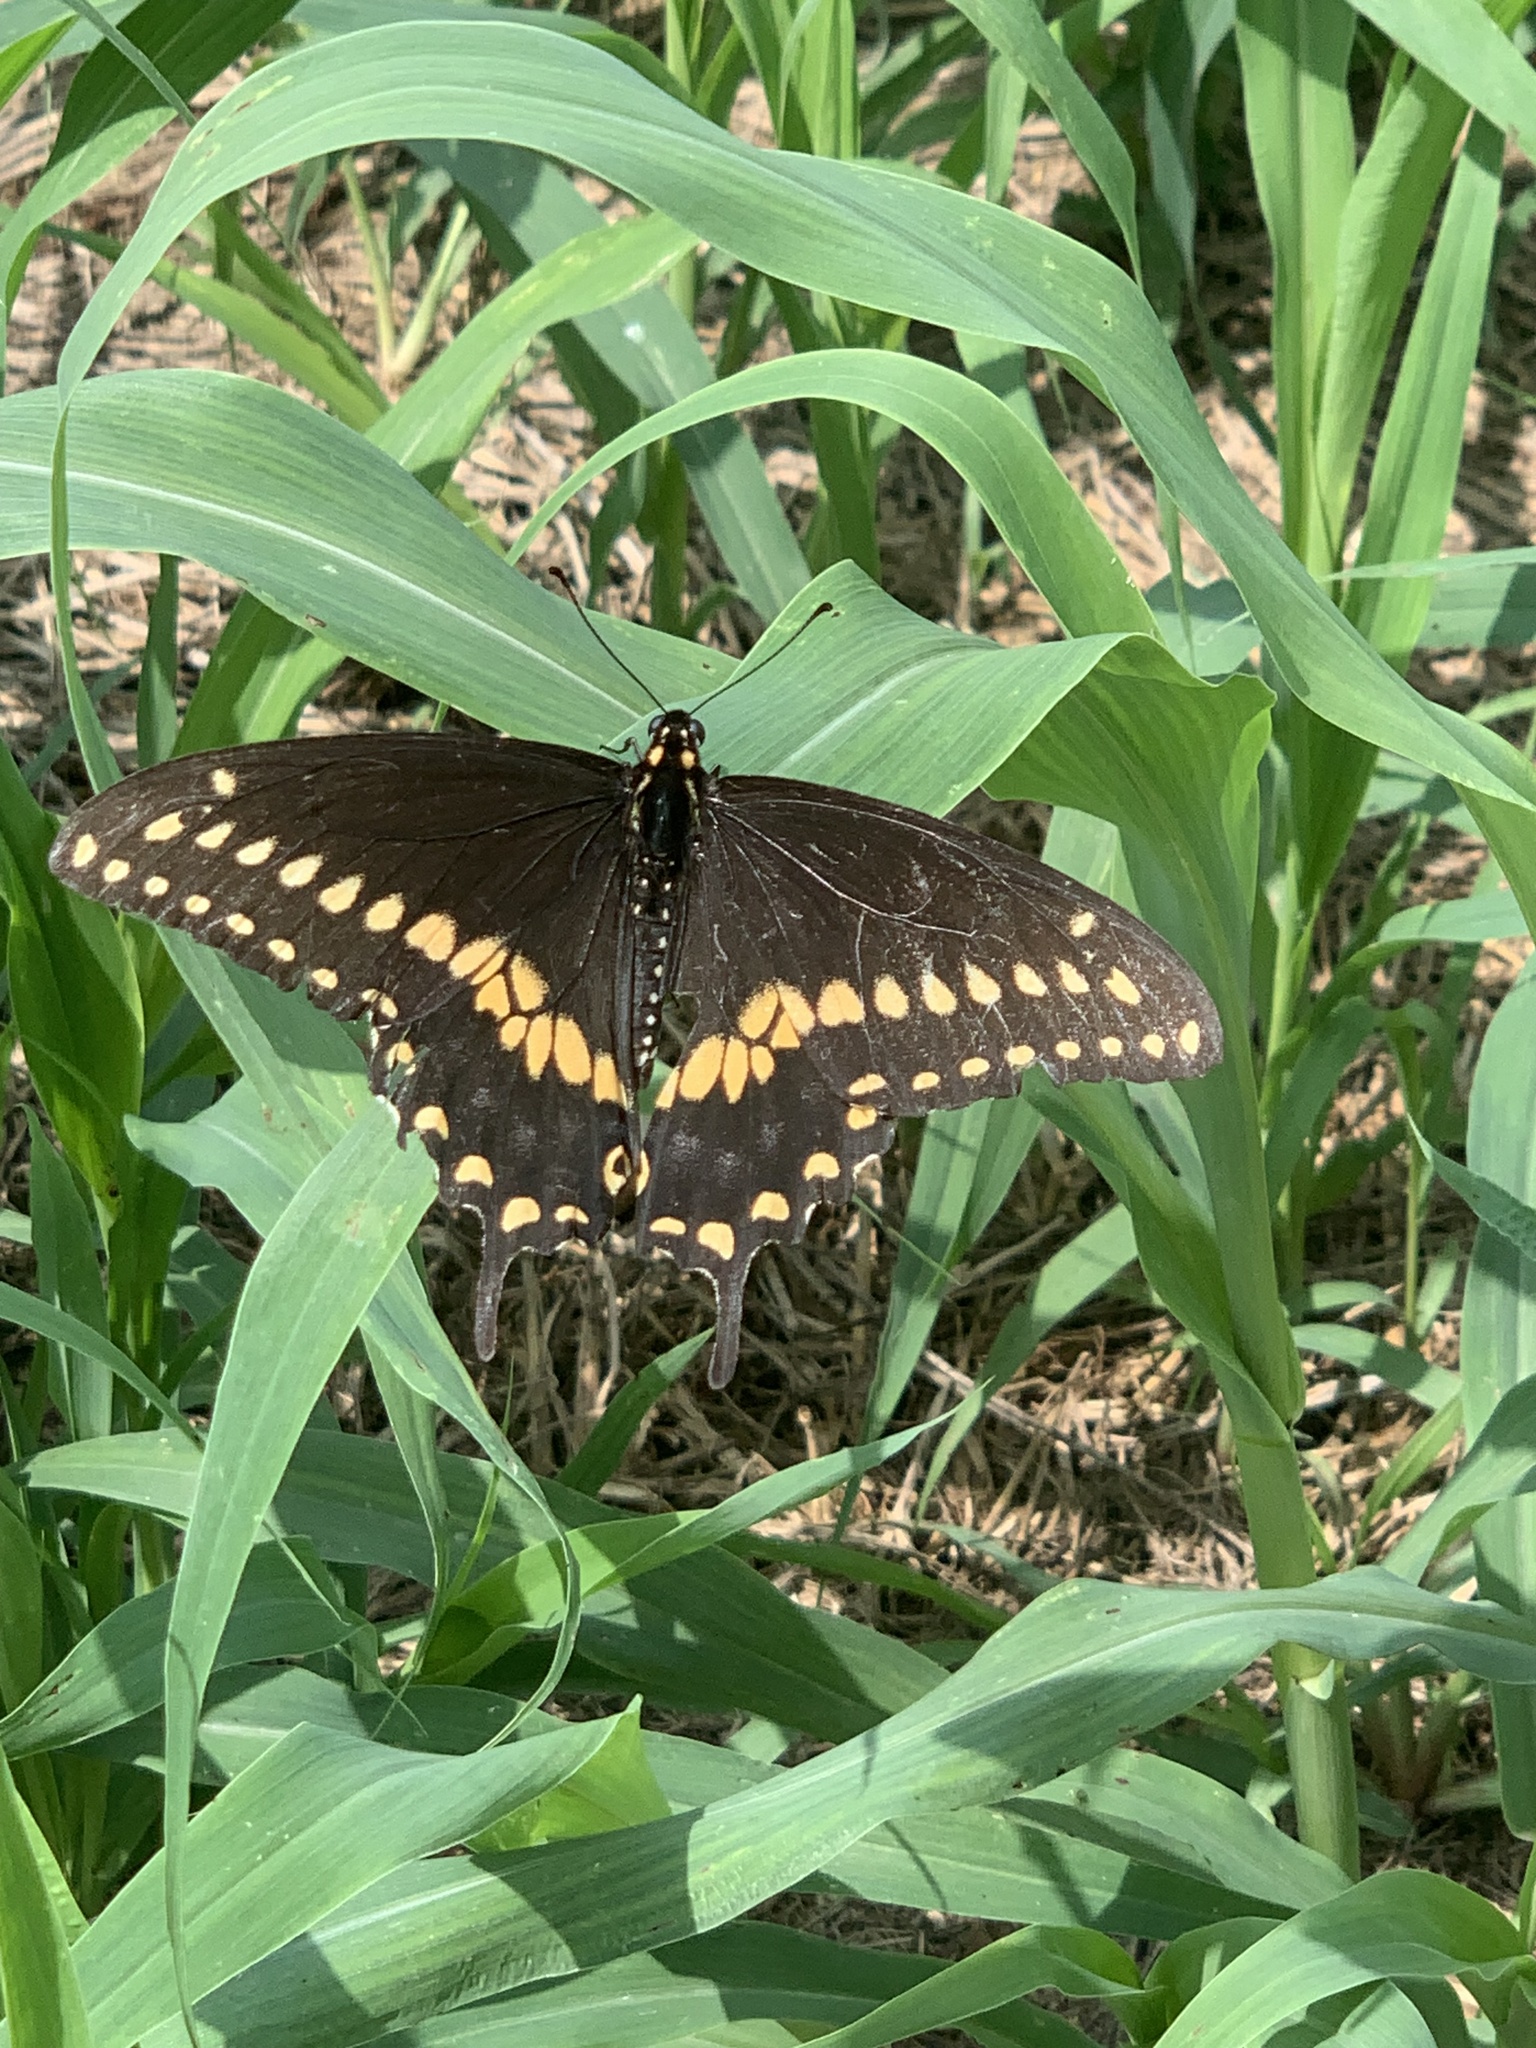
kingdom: Animalia
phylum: Arthropoda
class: Insecta
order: Lepidoptera
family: Papilionidae
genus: Papilio
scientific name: Papilio polyxenes
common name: Black swallowtail
